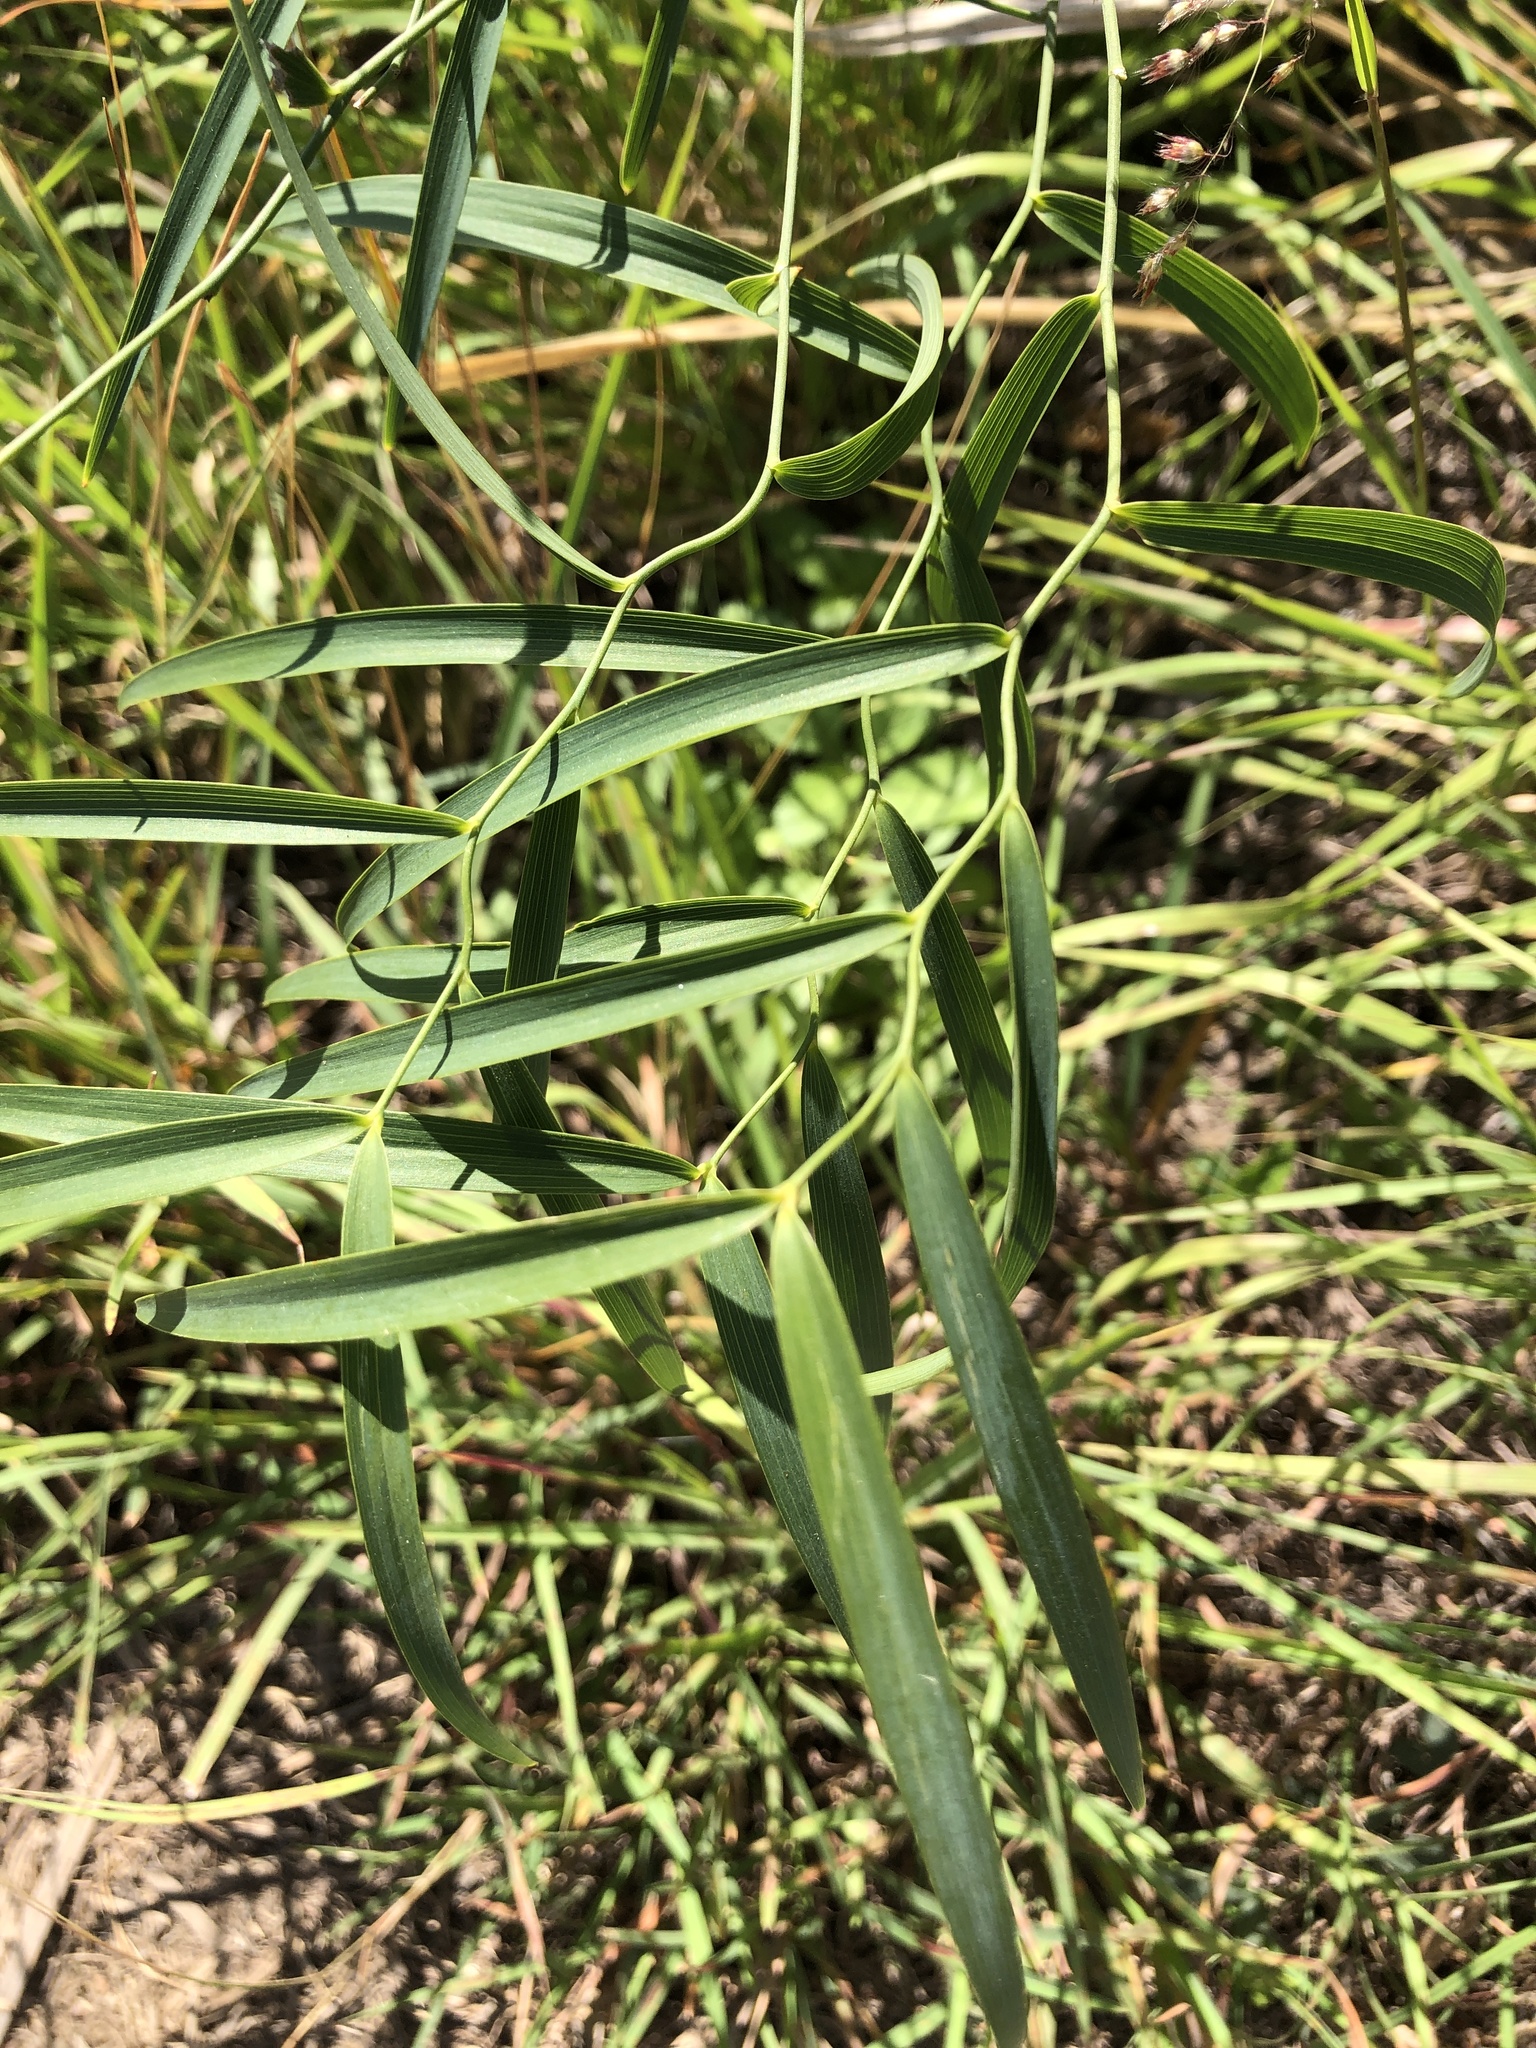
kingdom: Plantae
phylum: Tracheophyta
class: Liliopsida
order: Asparagales
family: Asparagaceae
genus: Eustrephus
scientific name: Eustrephus latifolius
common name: Orangevine
